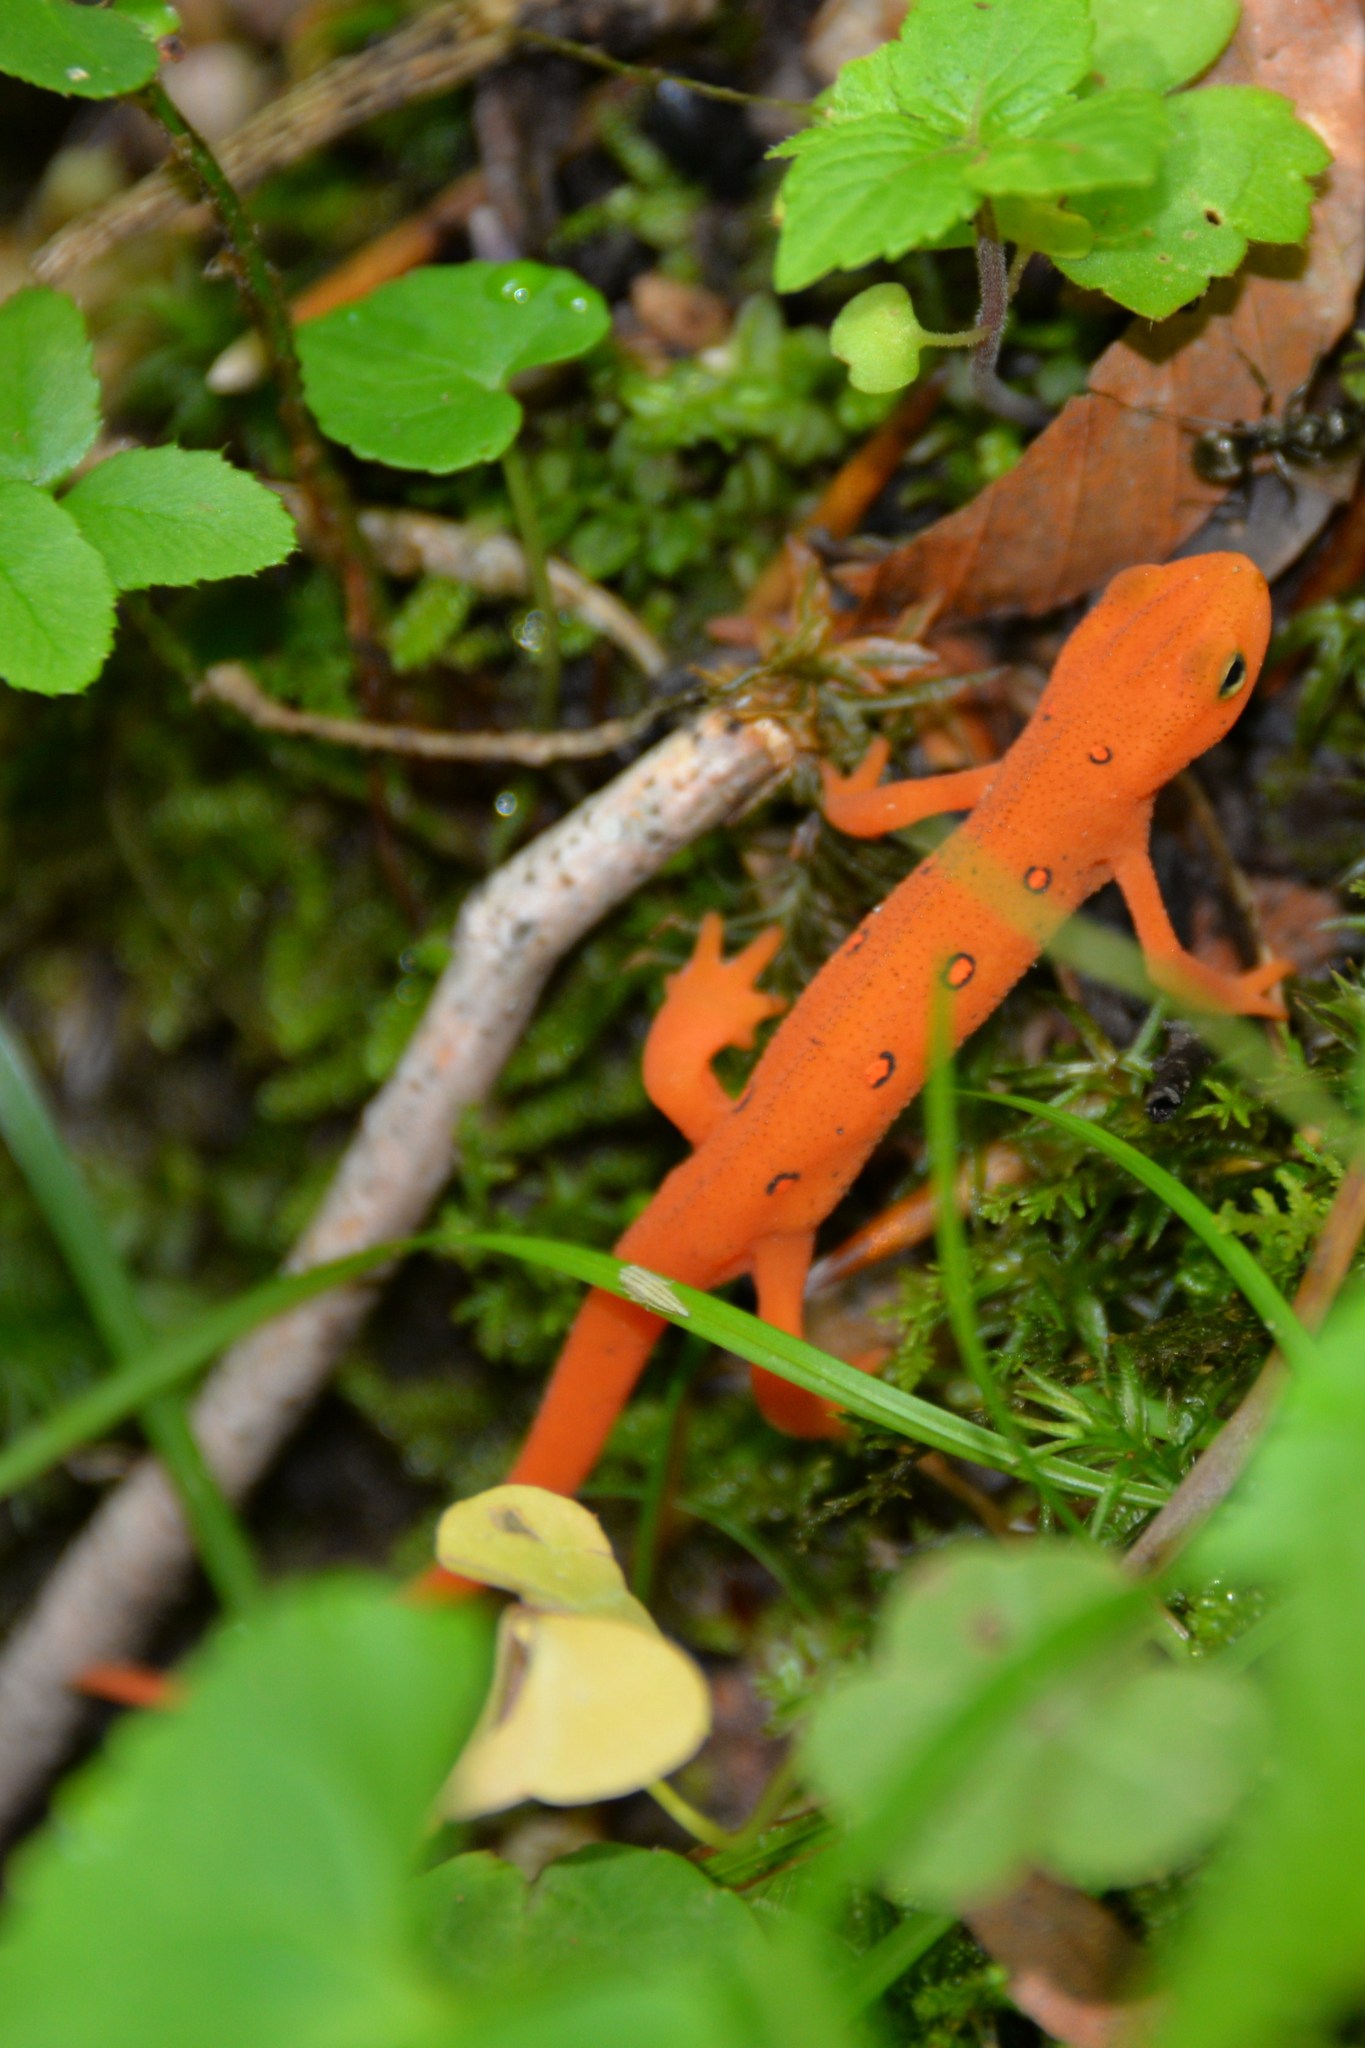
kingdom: Animalia
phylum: Chordata
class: Amphibia
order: Caudata
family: Salamandridae
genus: Notophthalmus
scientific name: Notophthalmus viridescens
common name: Eastern newt
